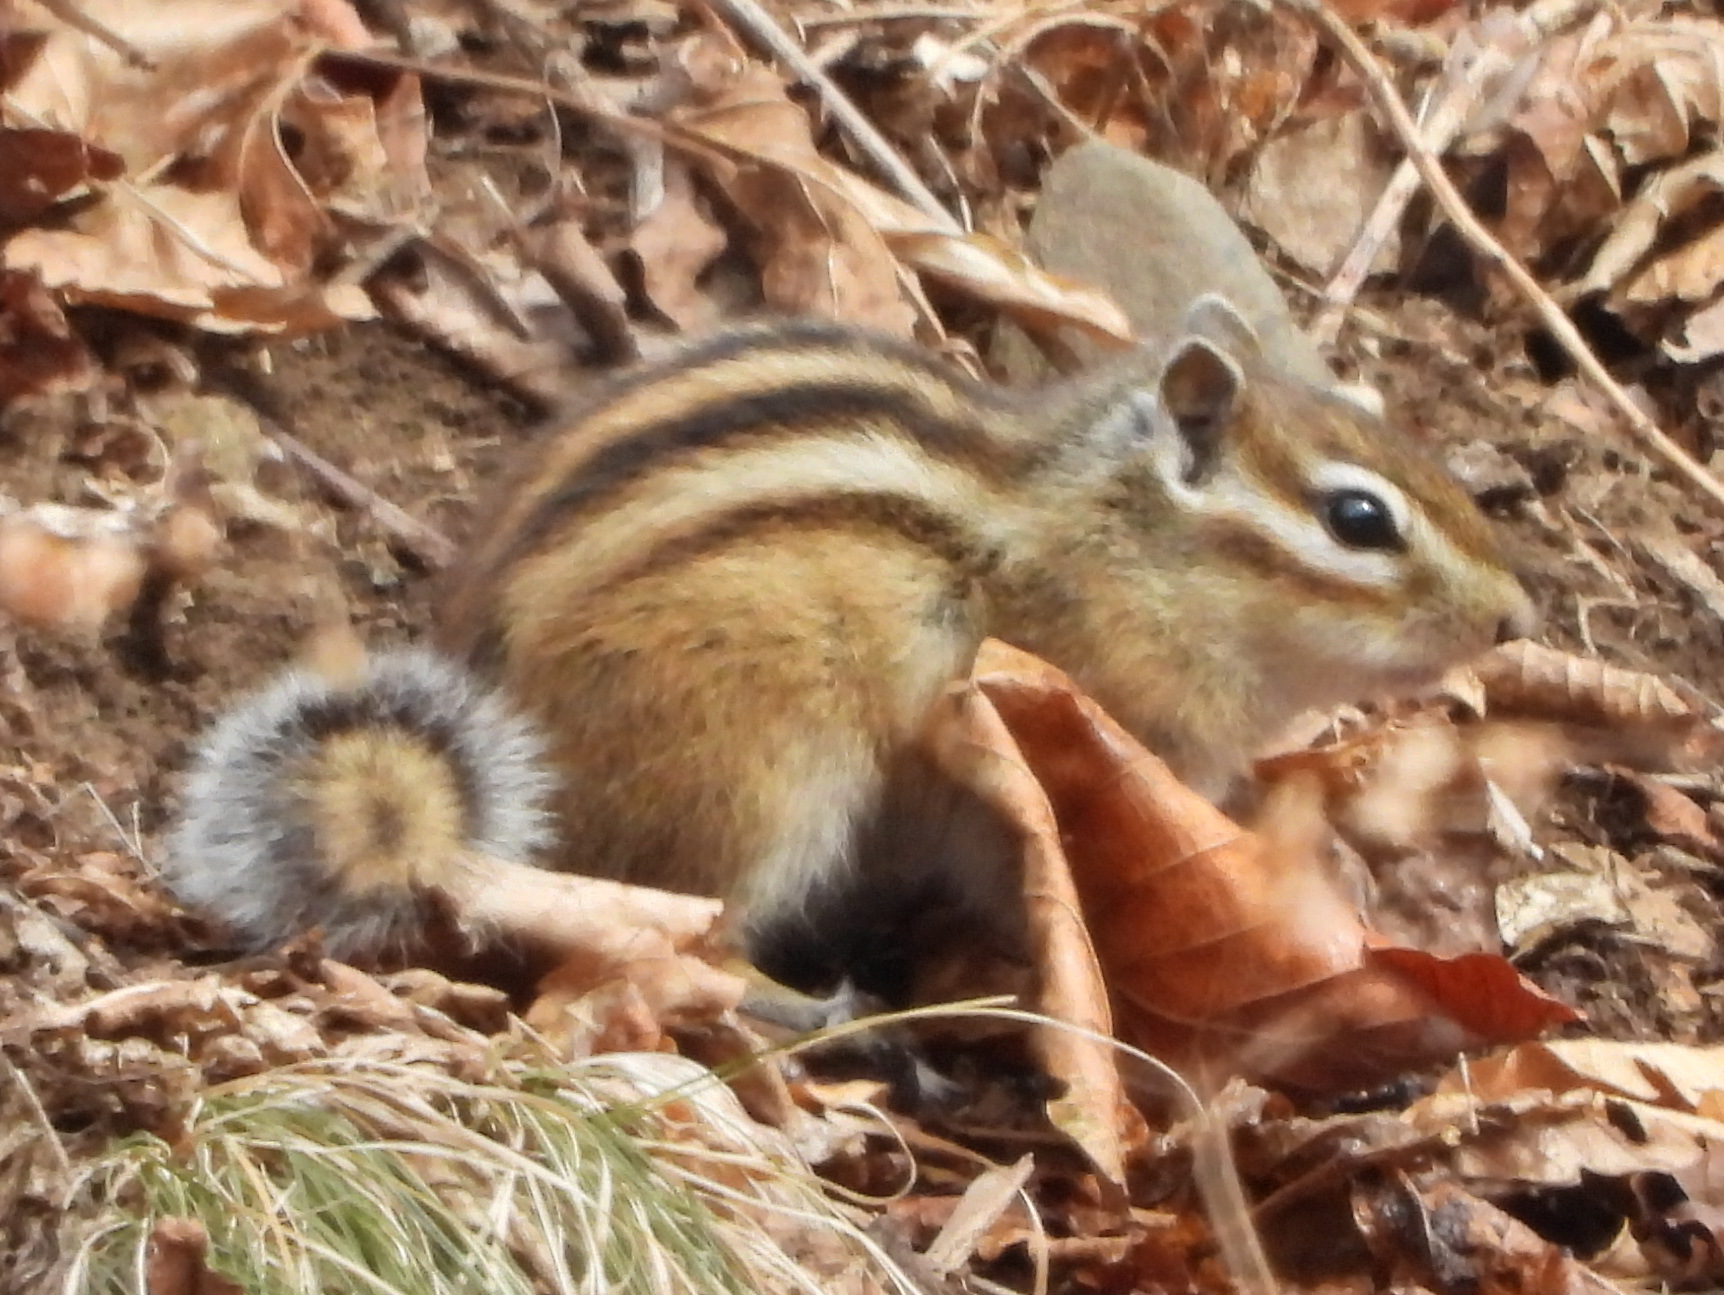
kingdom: Animalia
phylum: Chordata
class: Mammalia
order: Rodentia
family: Sciuridae
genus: Tamias
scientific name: Tamias sibiricus
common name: Siberian chipmunk
